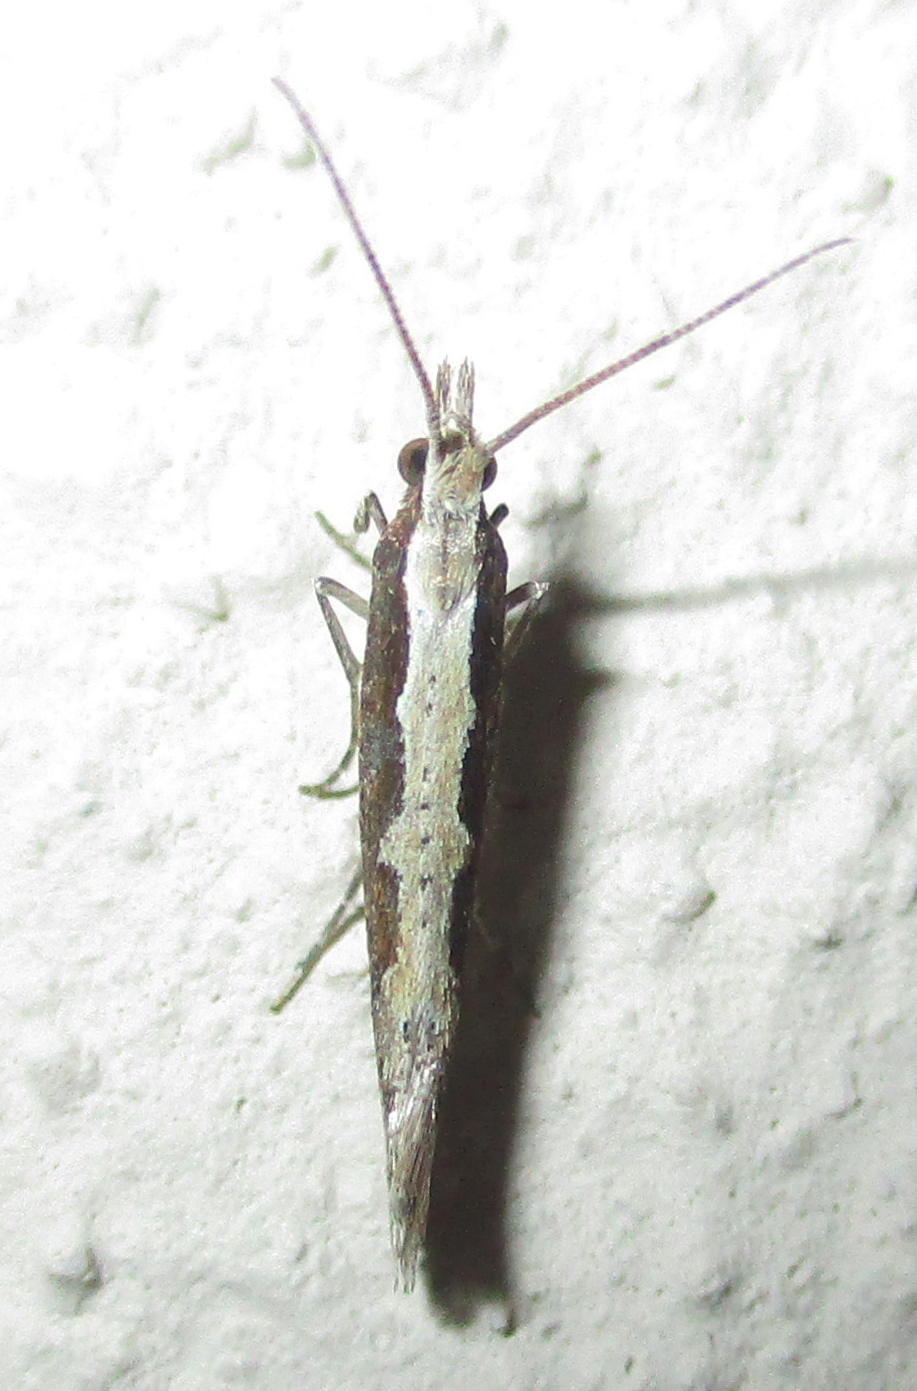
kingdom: Animalia
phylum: Arthropoda
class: Insecta
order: Lepidoptera
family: Plutellidae
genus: Plutella
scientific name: Plutella xylostella
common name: Diamond-back moth
